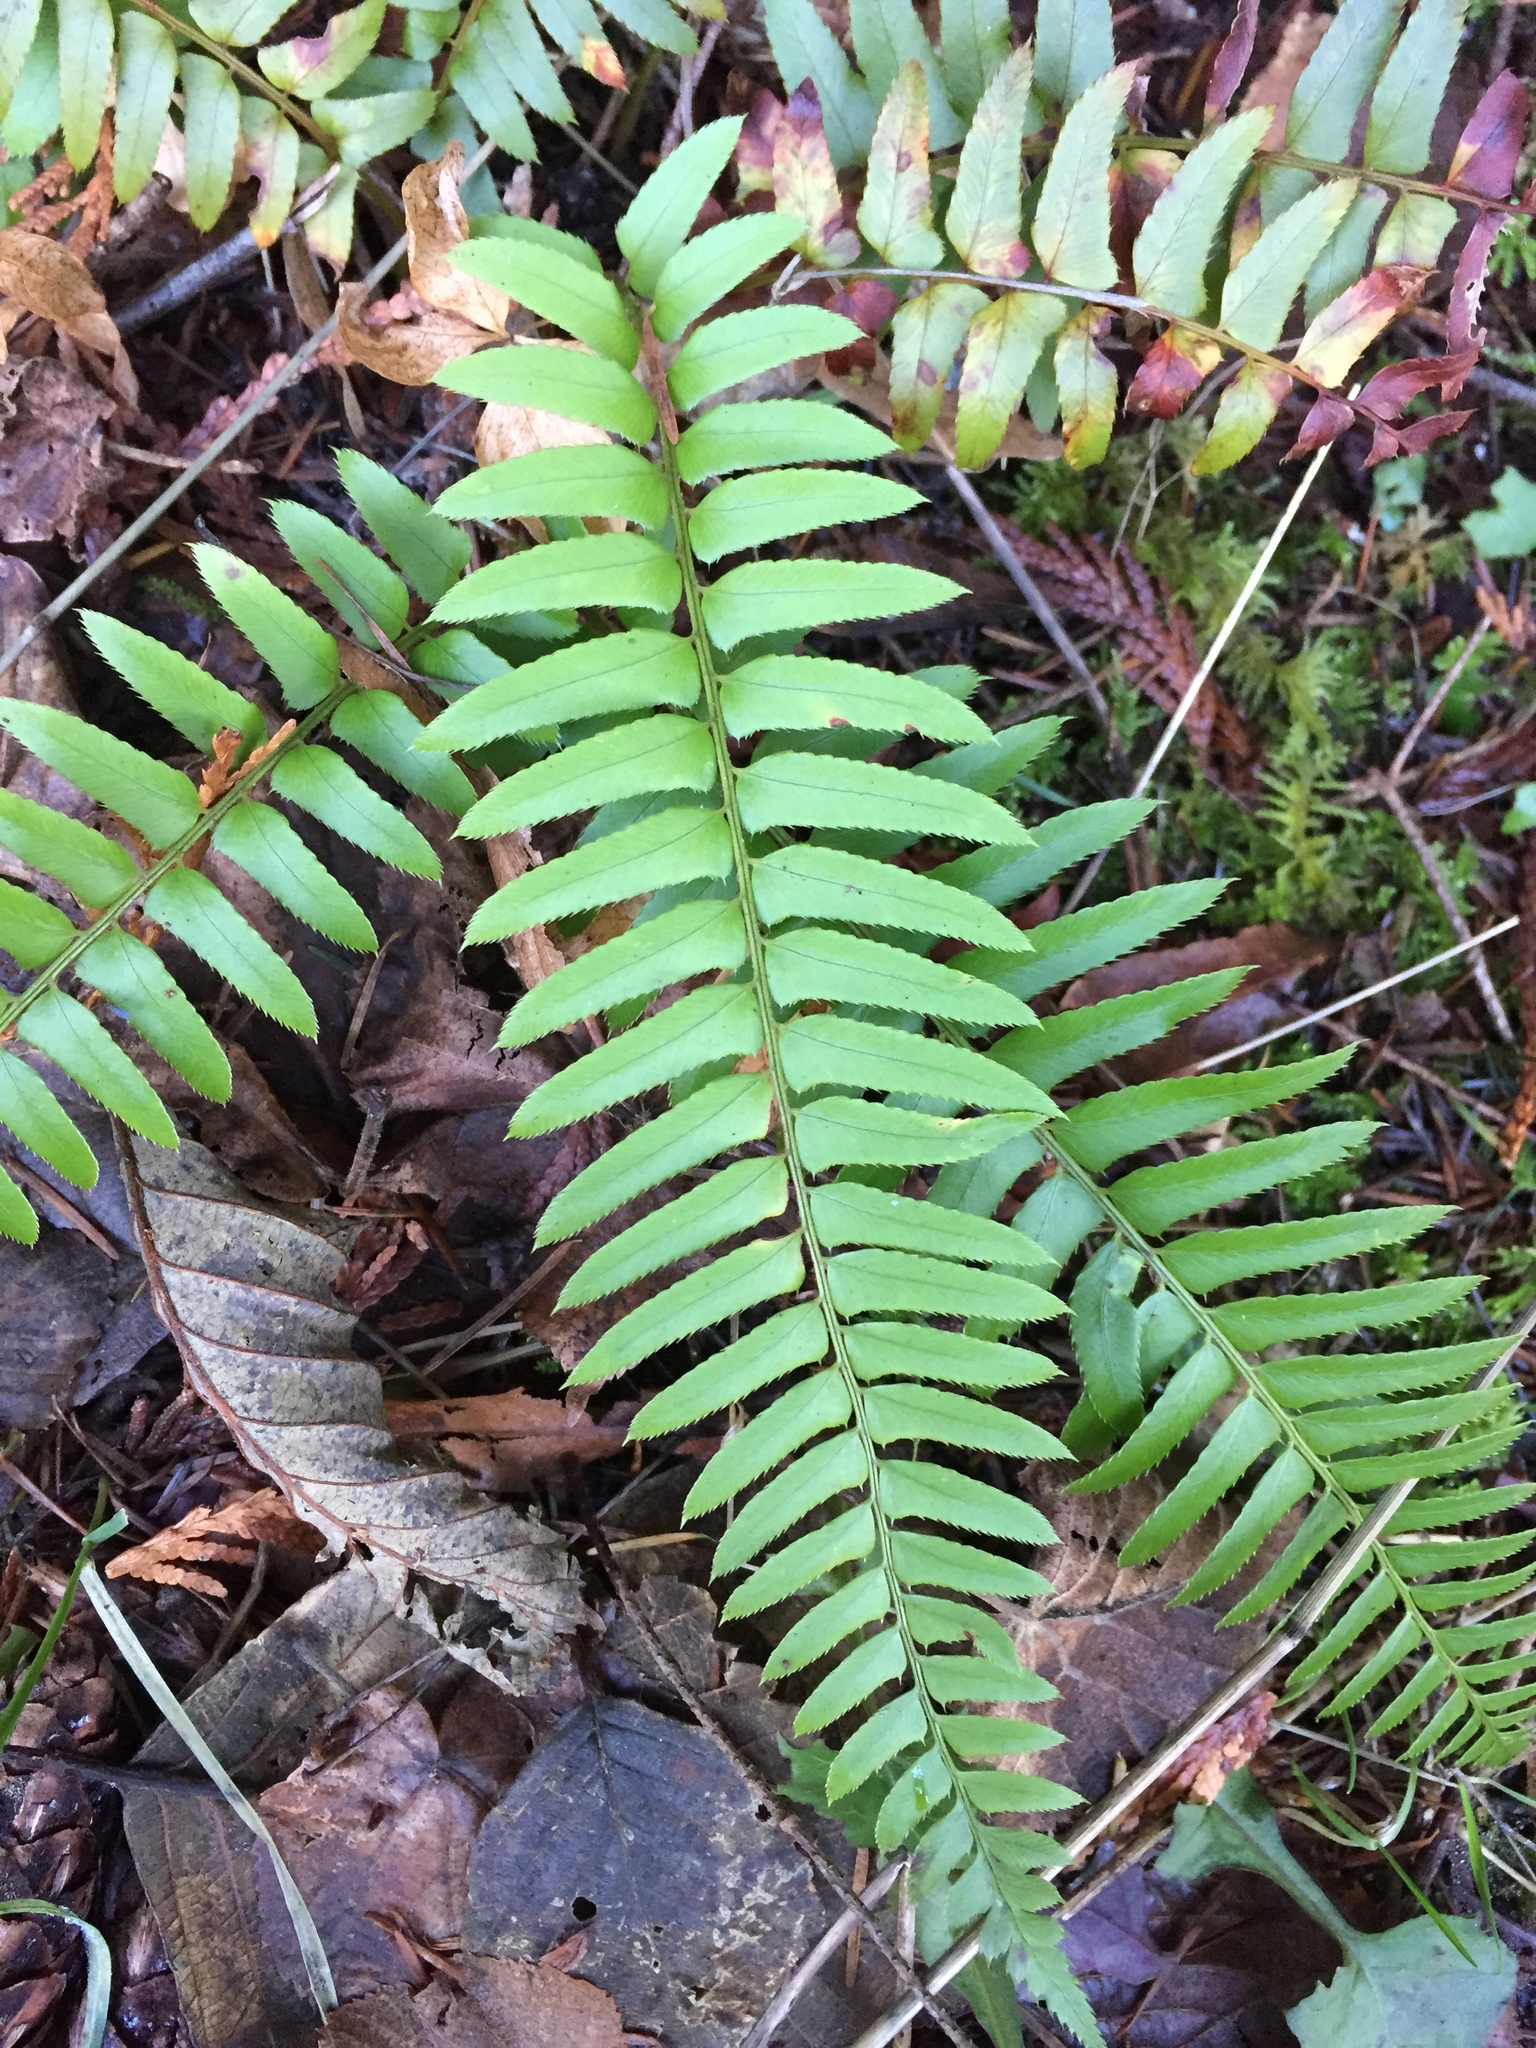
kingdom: Plantae
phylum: Tracheophyta
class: Polypodiopsida
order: Polypodiales
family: Dryopteridaceae
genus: Polystichum
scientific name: Polystichum munitum
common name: Western sword-fern
